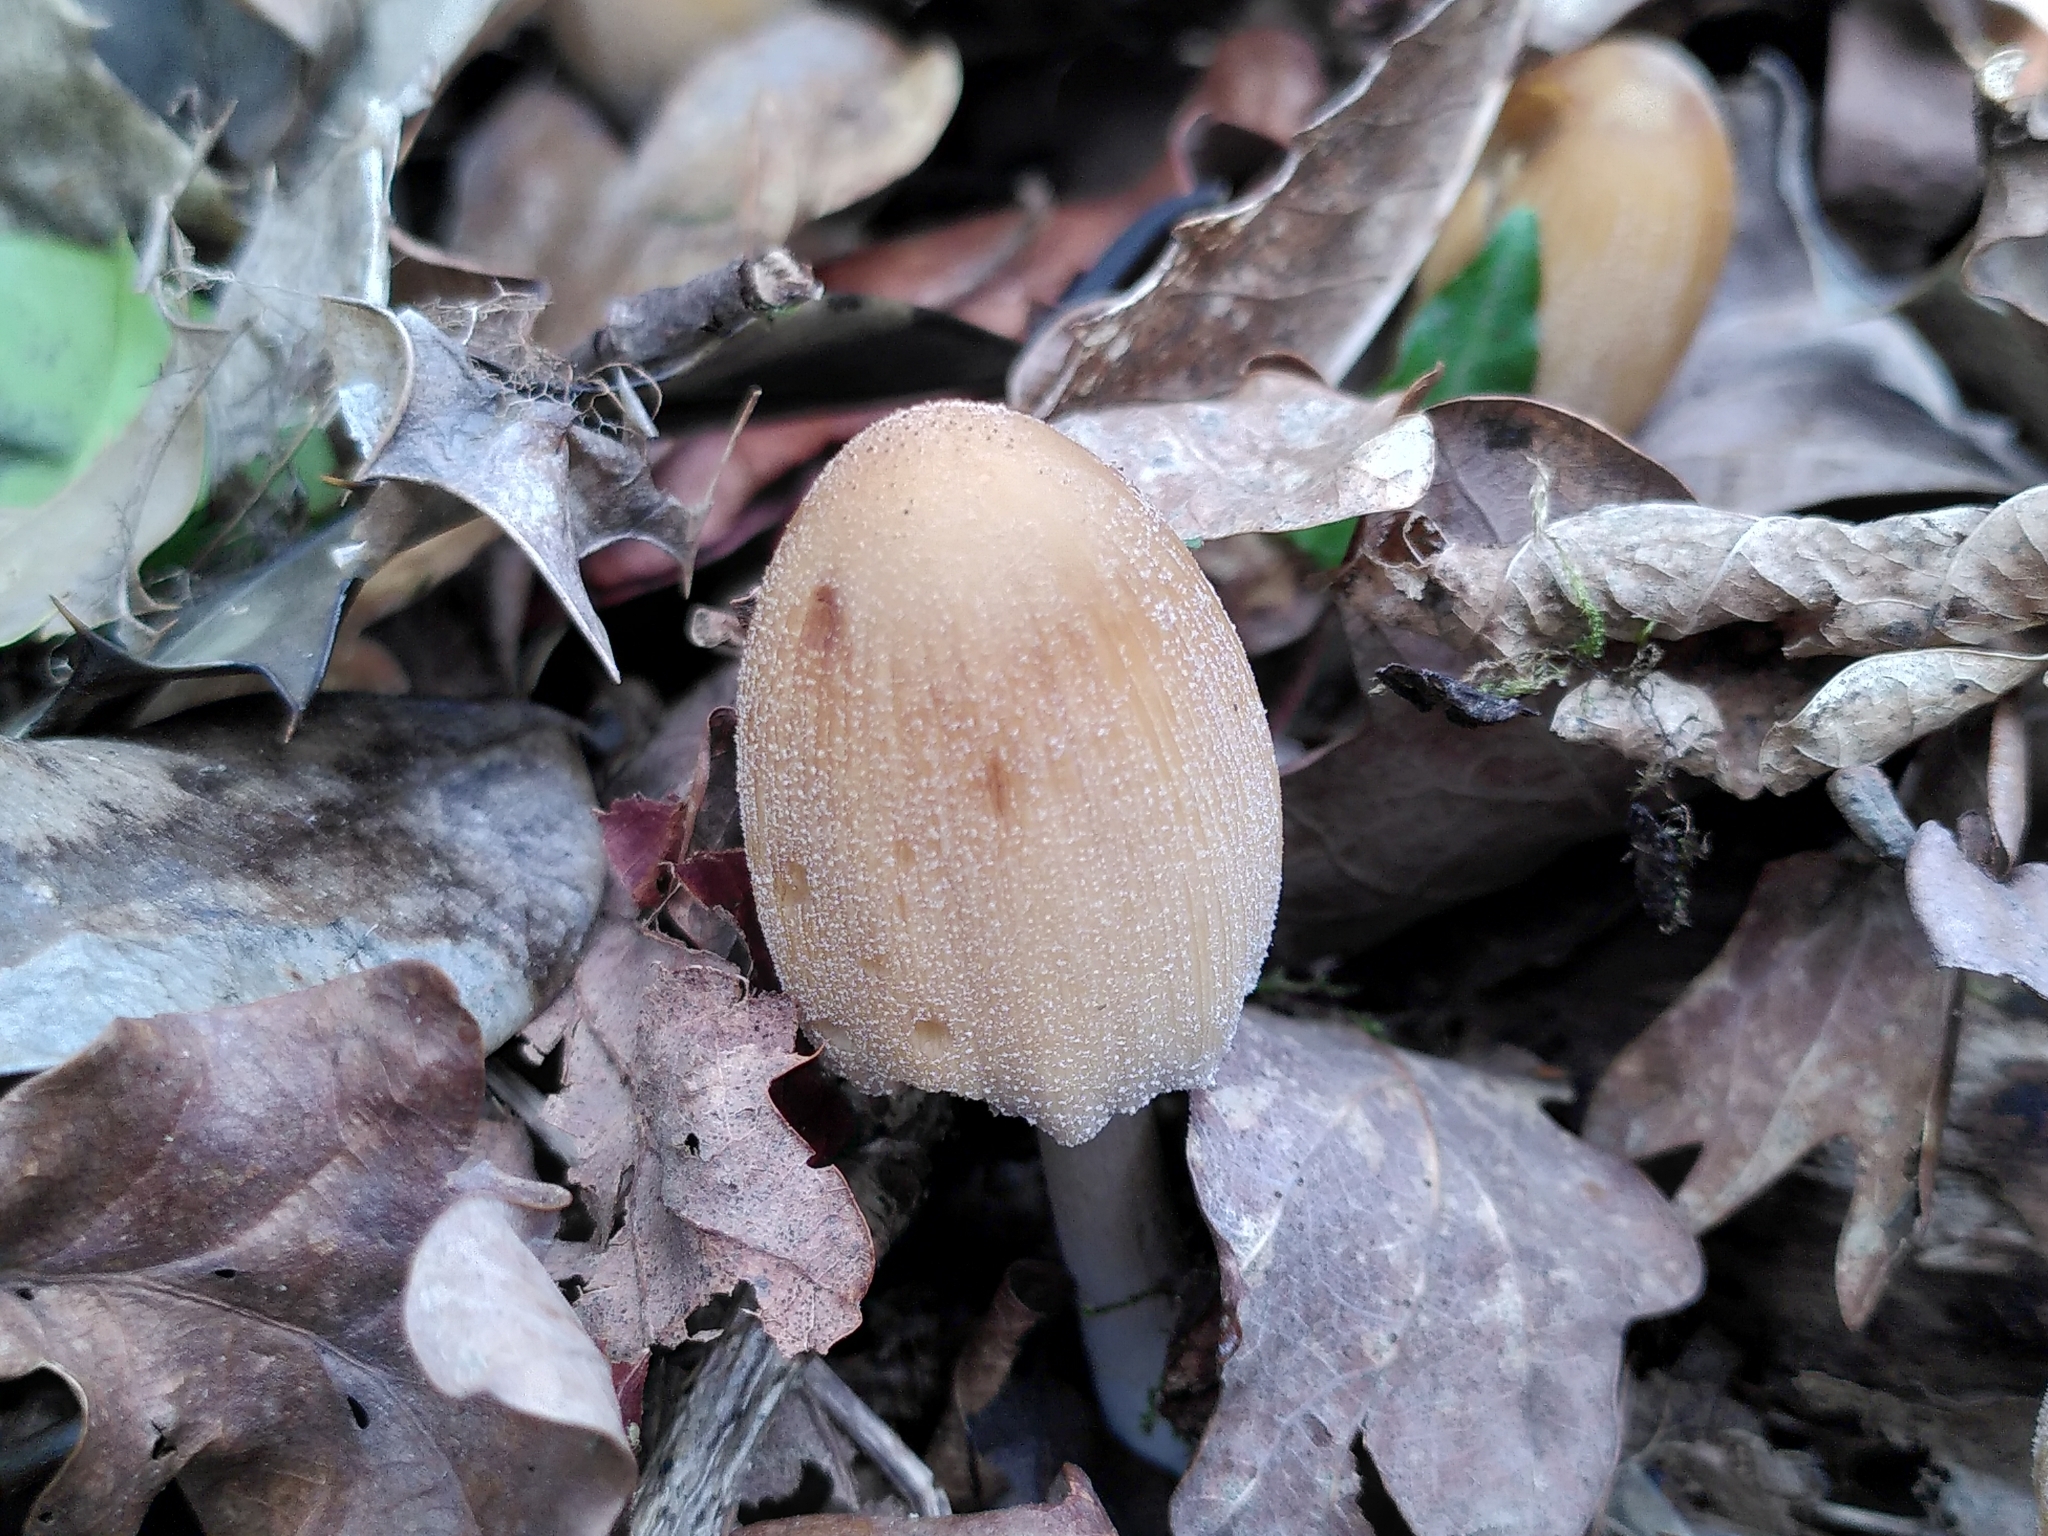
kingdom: Fungi
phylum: Basidiomycota
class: Agaricomycetes
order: Agaricales
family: Psathyrellaceae
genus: Coprinellus
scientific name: Coprinellus micaceus
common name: Glistening ink-cap
